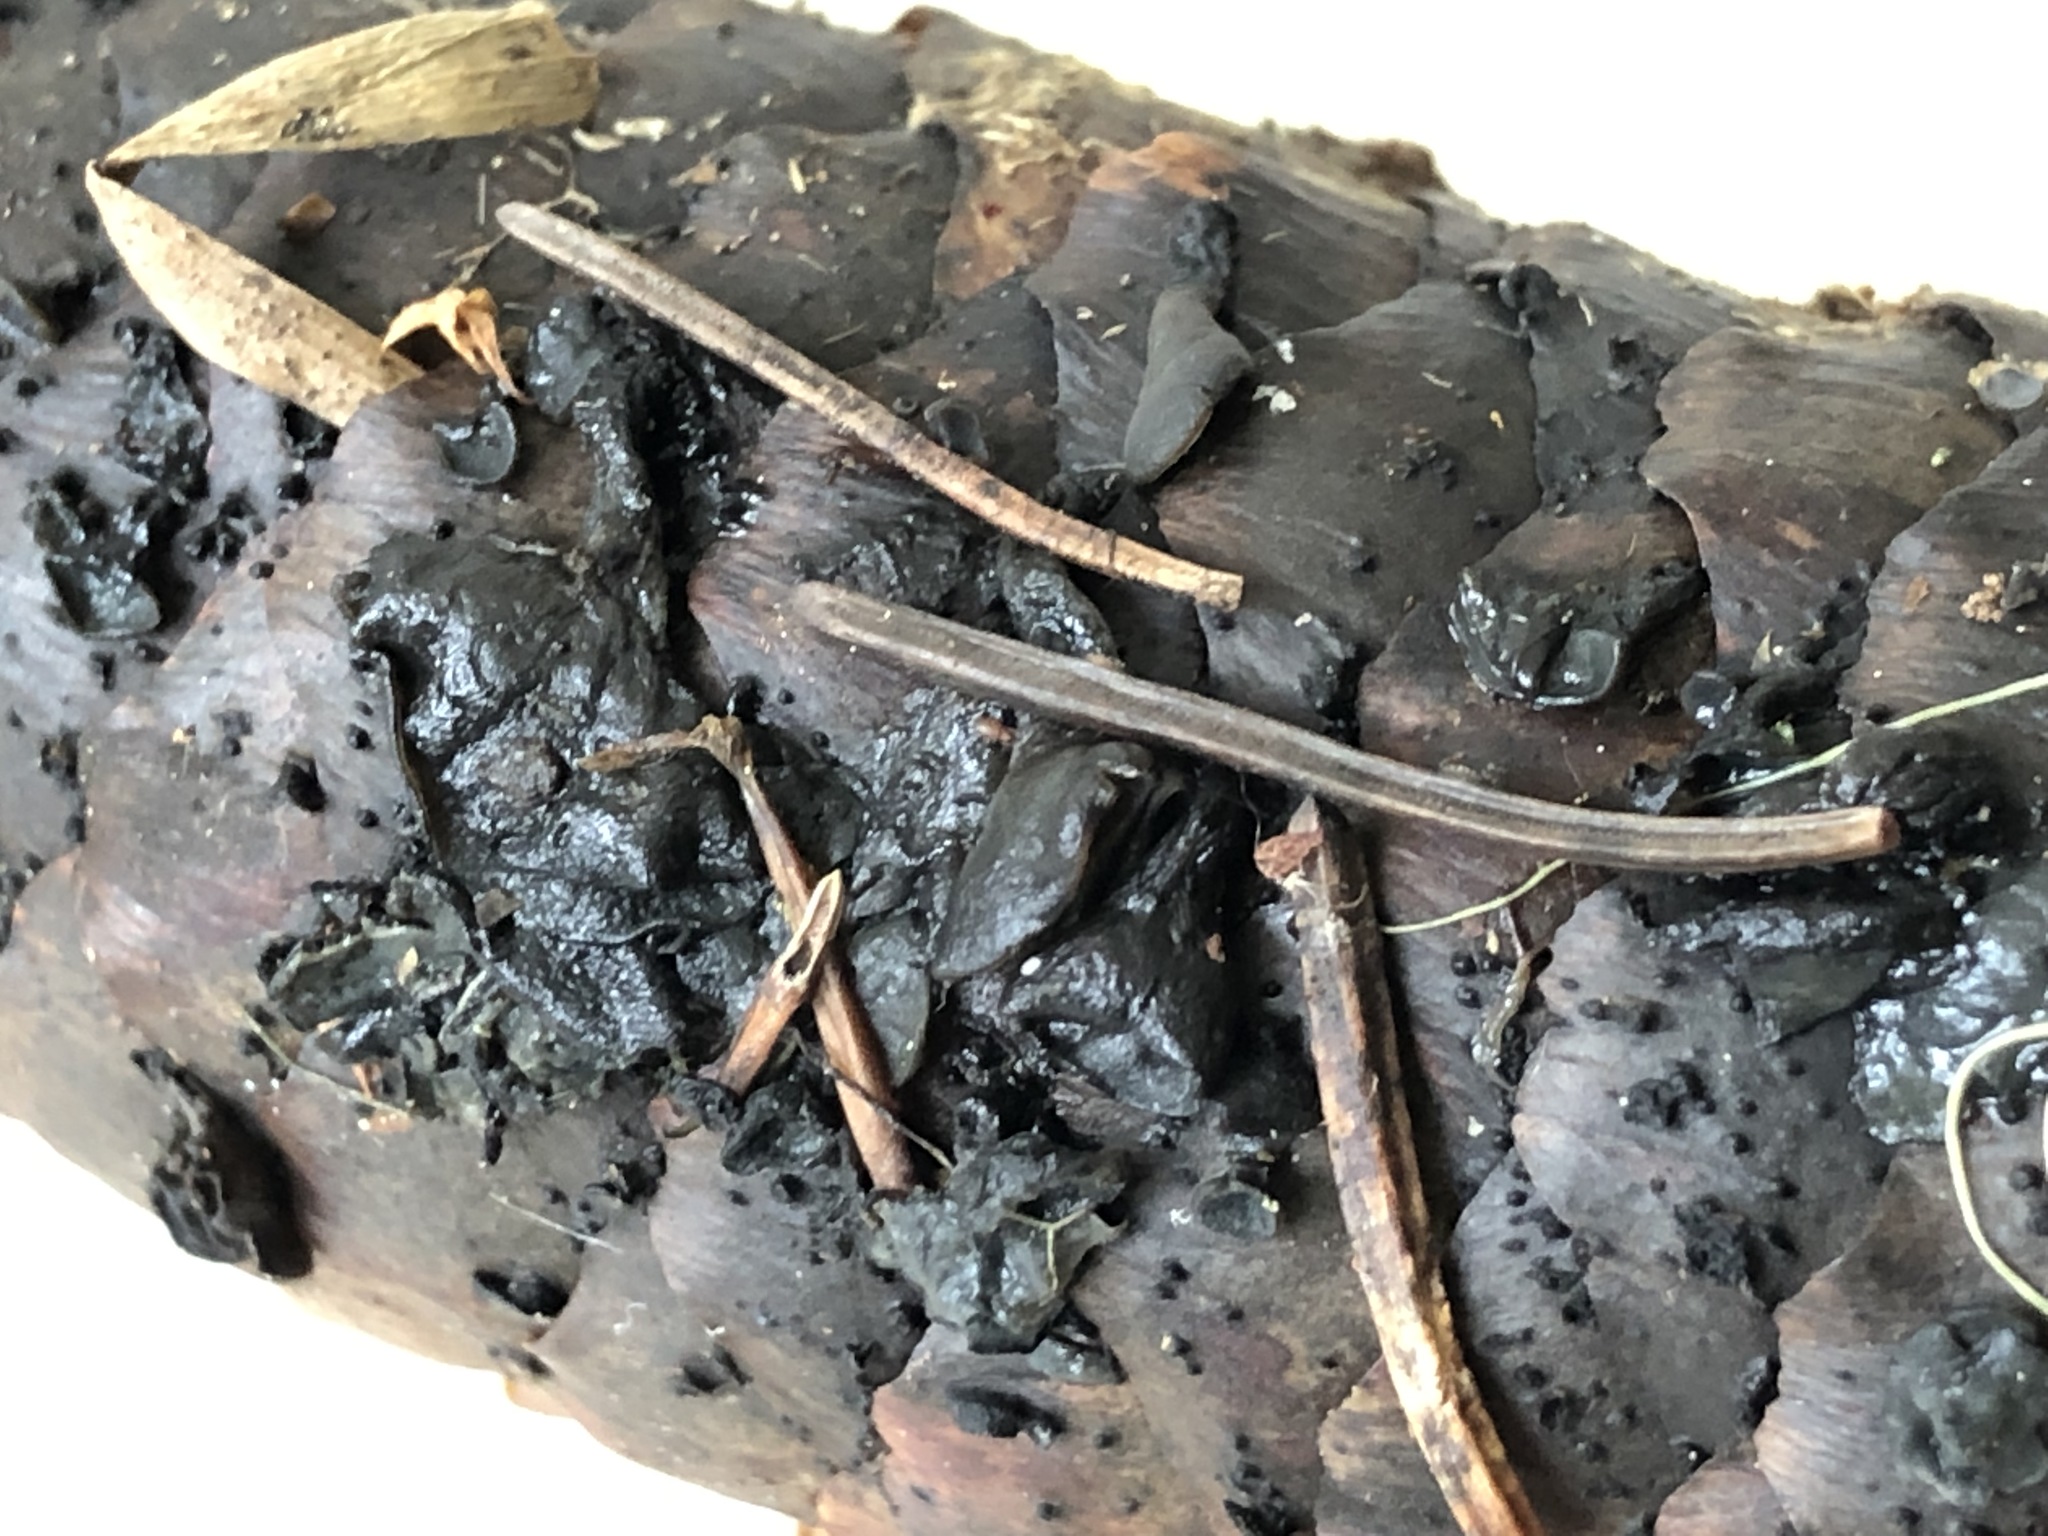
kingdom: Fungi
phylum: Ascomycota
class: Leotiomycetes
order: Helotiales
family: Rutstroemiaceae
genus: Rutstroemia
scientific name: Rutstroemia bulgarioides
